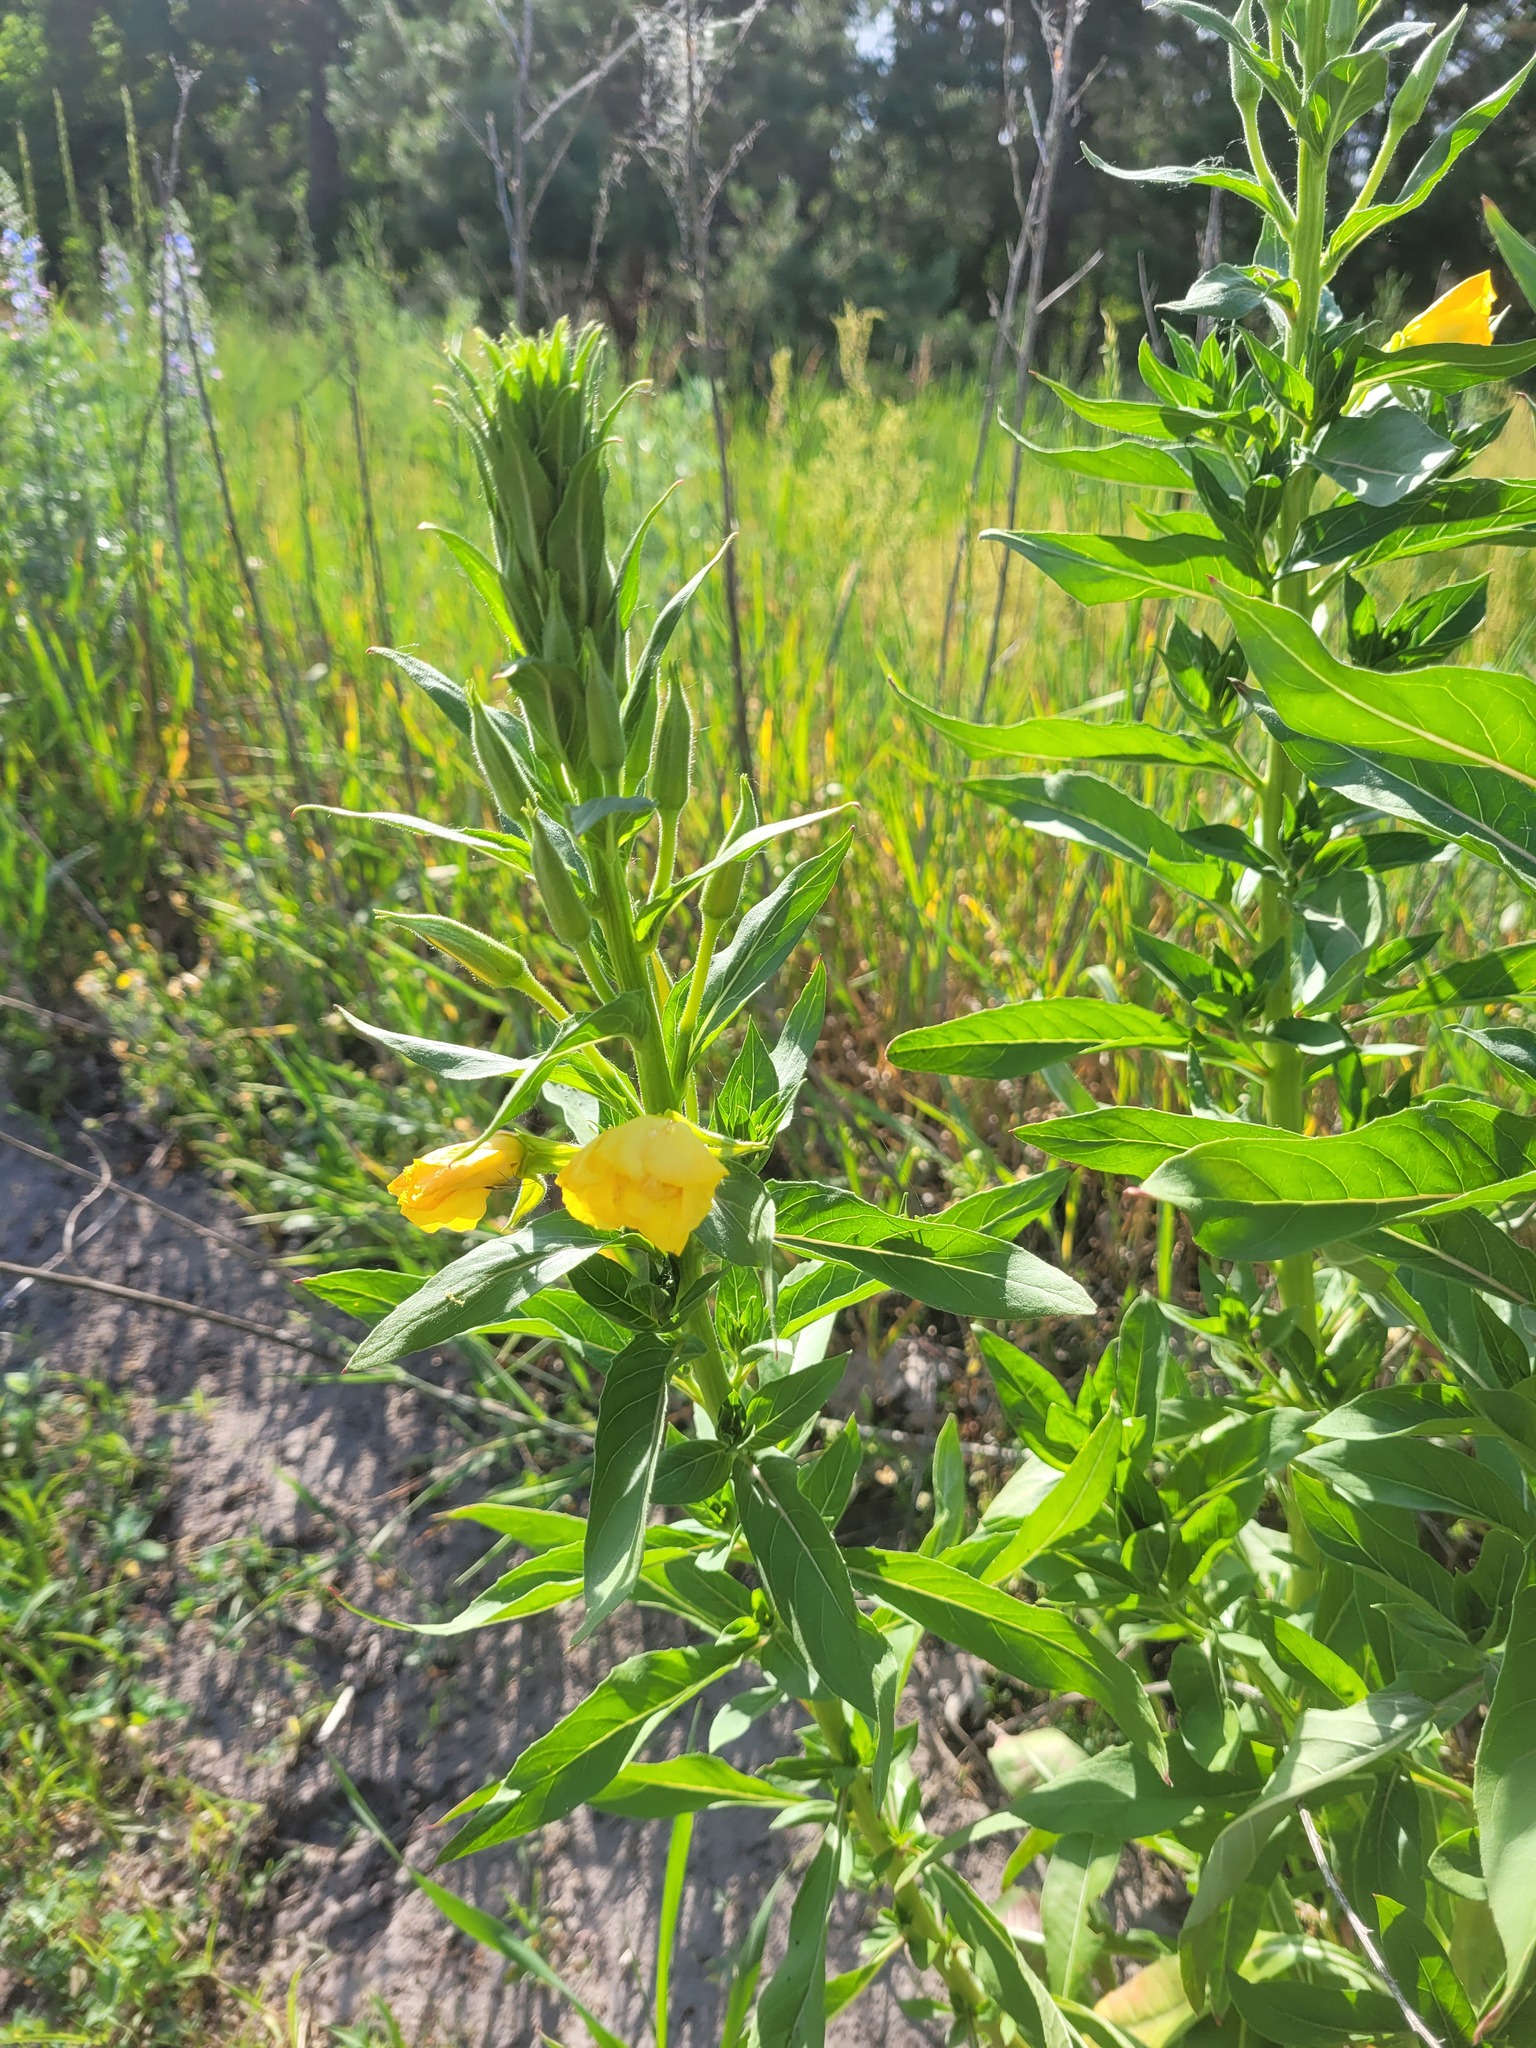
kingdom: Plantae
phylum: Tracheophyta
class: Magnoliopsida
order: Myrtales
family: Onagraceae
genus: Oenothera
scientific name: Oenothera biennis
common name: Common evening-primrose
